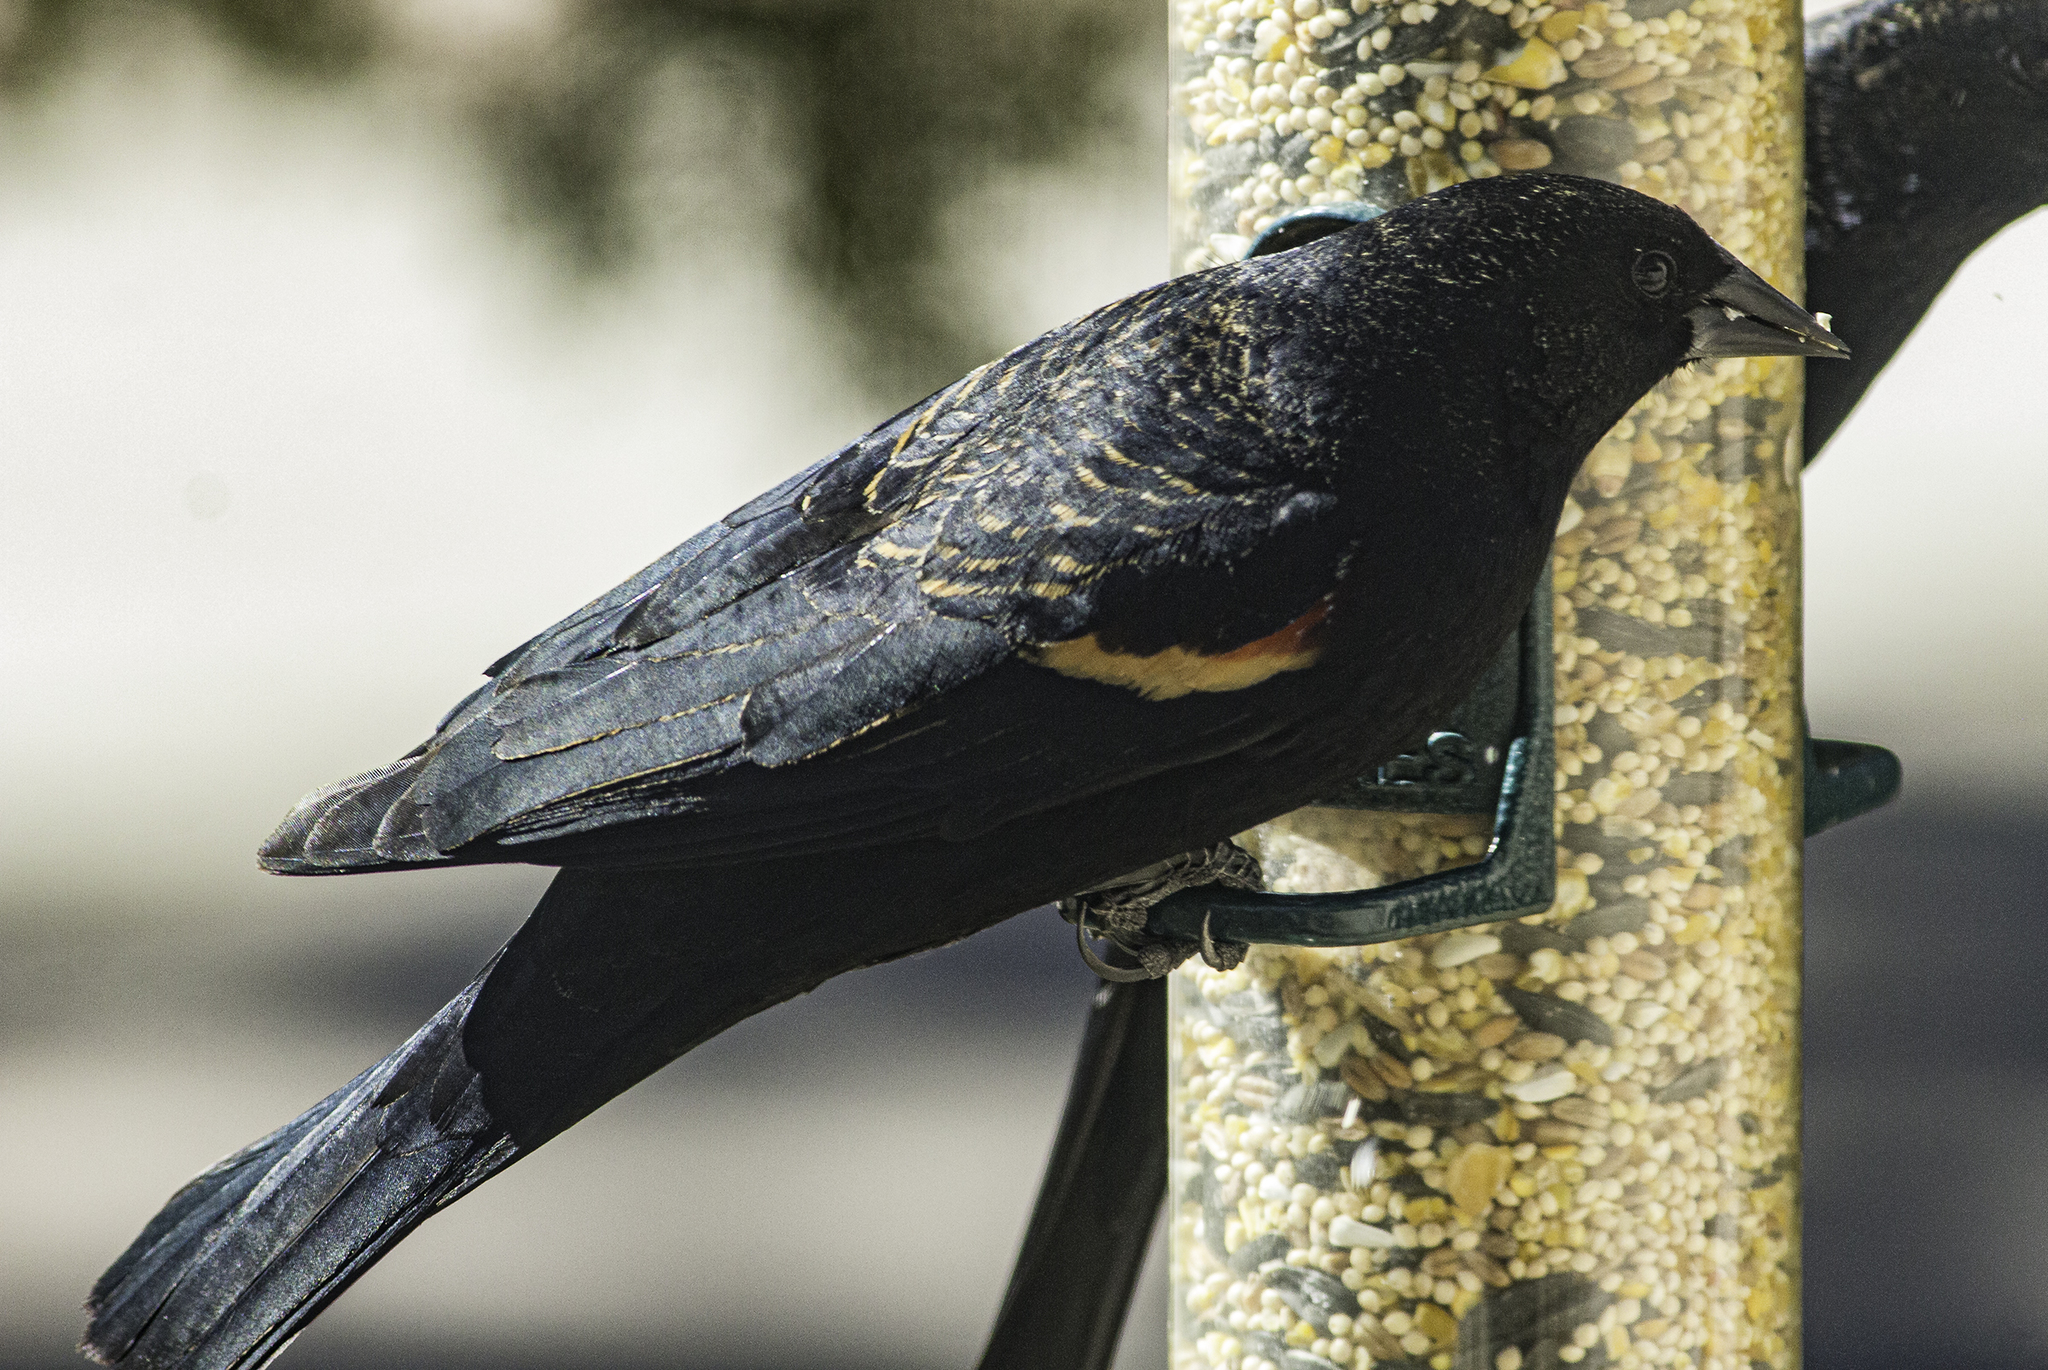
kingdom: Animalia
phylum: Chordata
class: Aves
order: Passeriformes
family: Icteridae
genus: Agelaius
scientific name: Agelaius phoeniceus
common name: Red-winged blackbird
